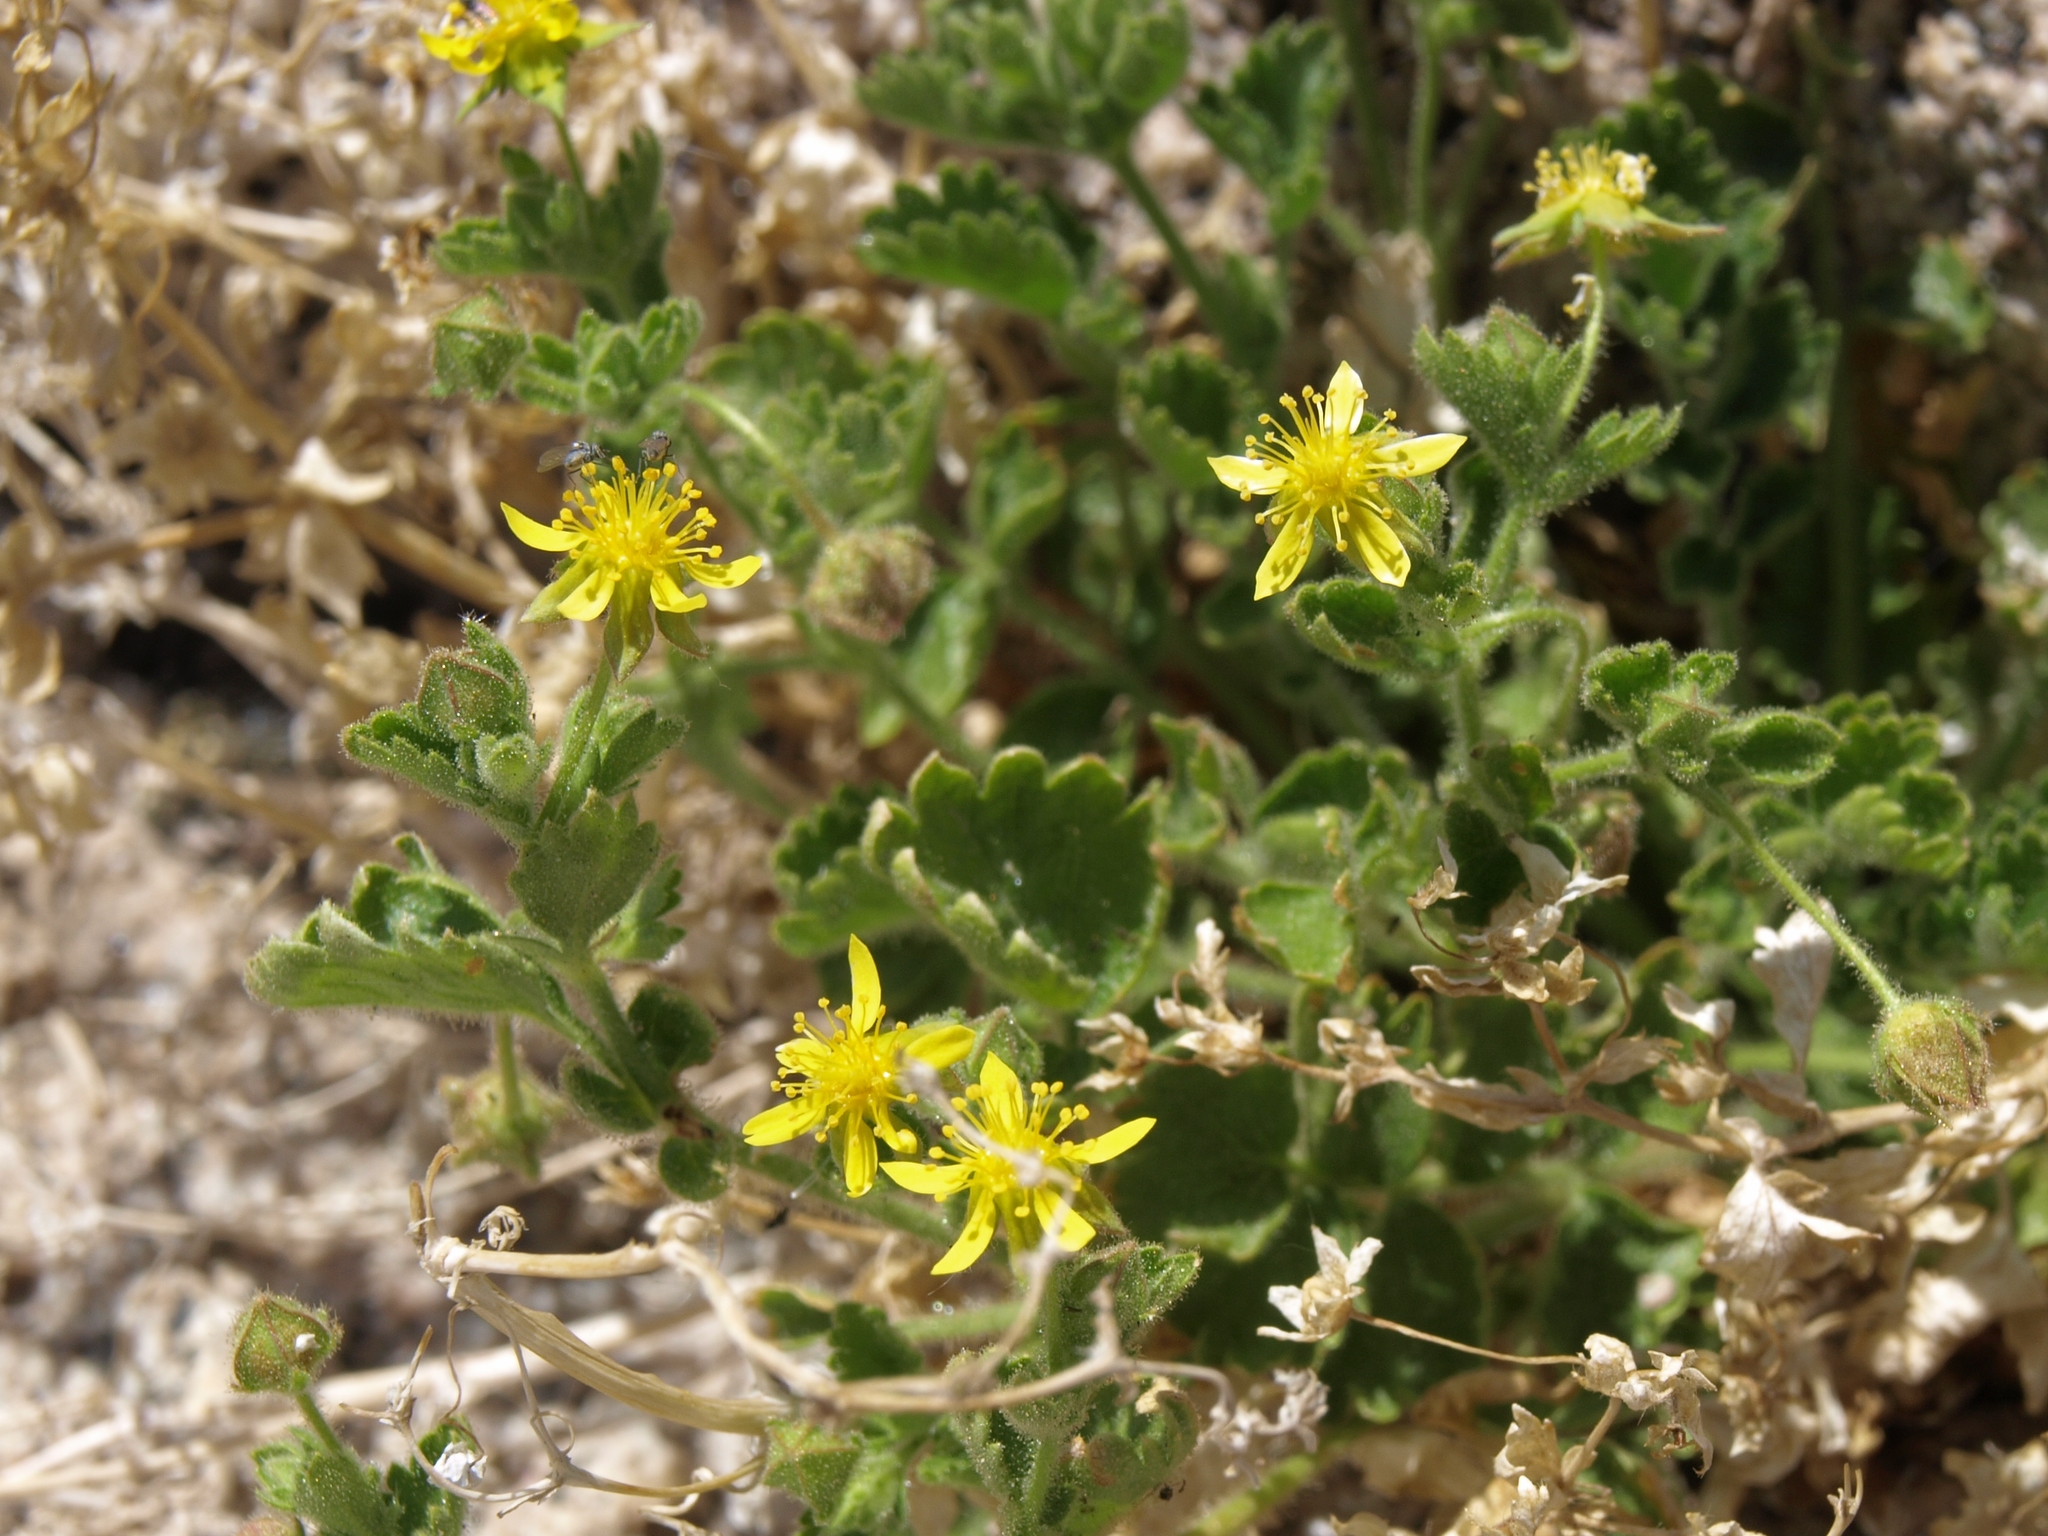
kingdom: Plantae
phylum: Tracheophyta
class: Magnoliopsida
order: Rosales
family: Rosaceae
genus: Potentilla
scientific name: Potentilla saxosa
